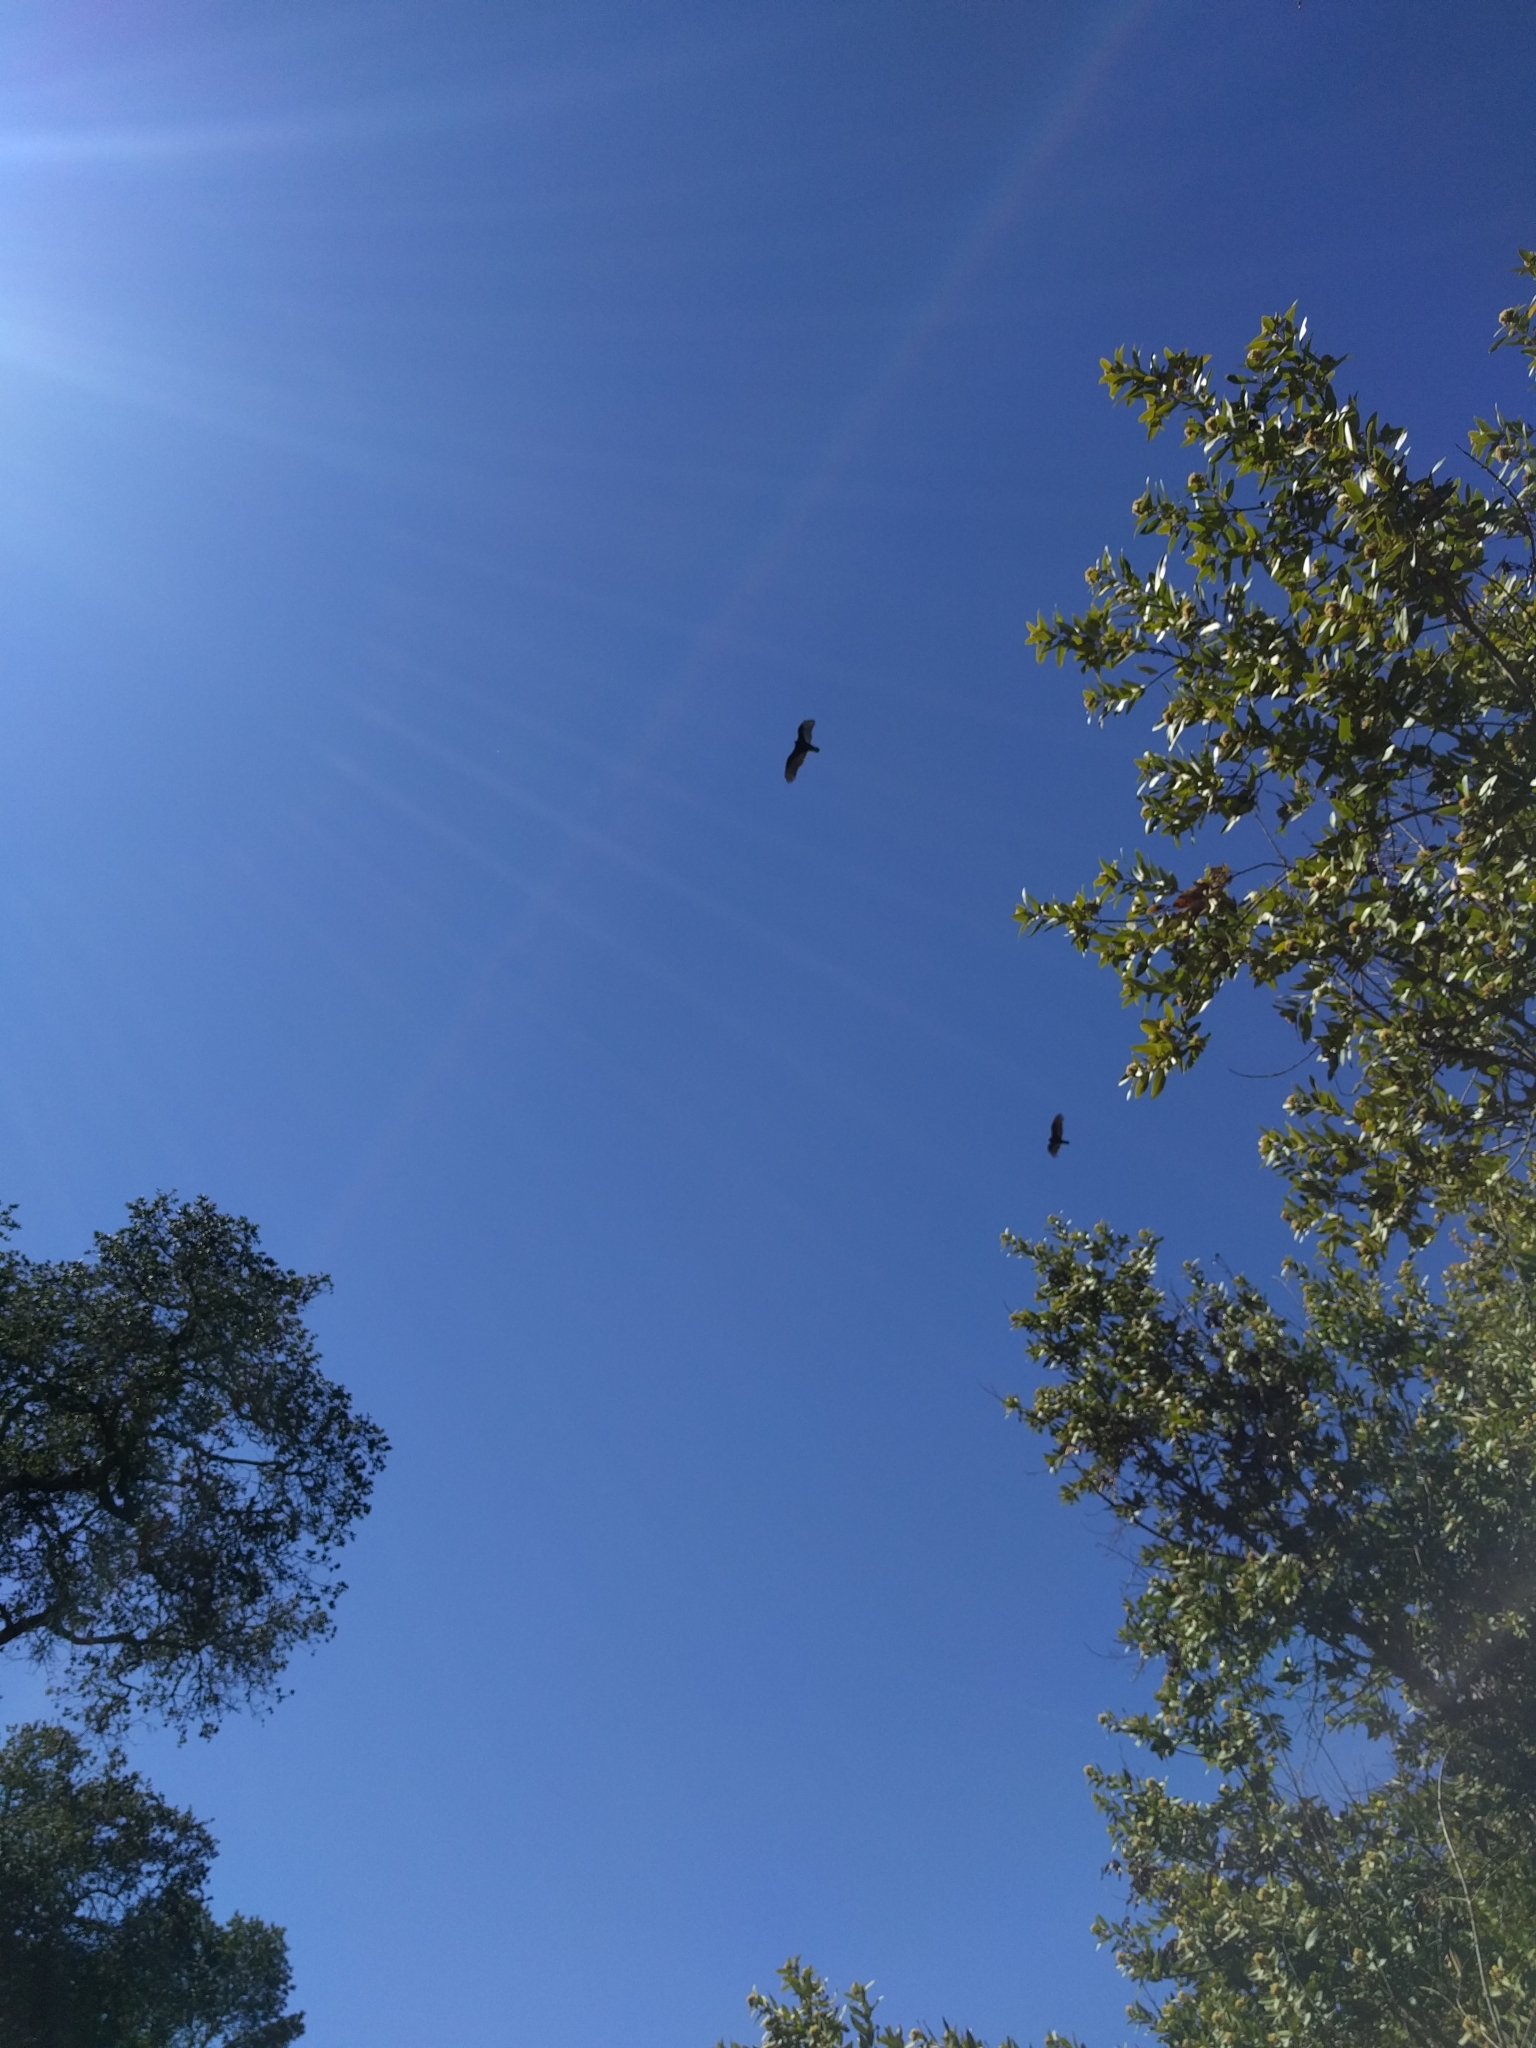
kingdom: Animalia
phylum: Chordata
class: Aves
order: Accipitriformes
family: Cathartidae
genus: Cathartes
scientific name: Cathartes aura
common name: Turkey vulture
